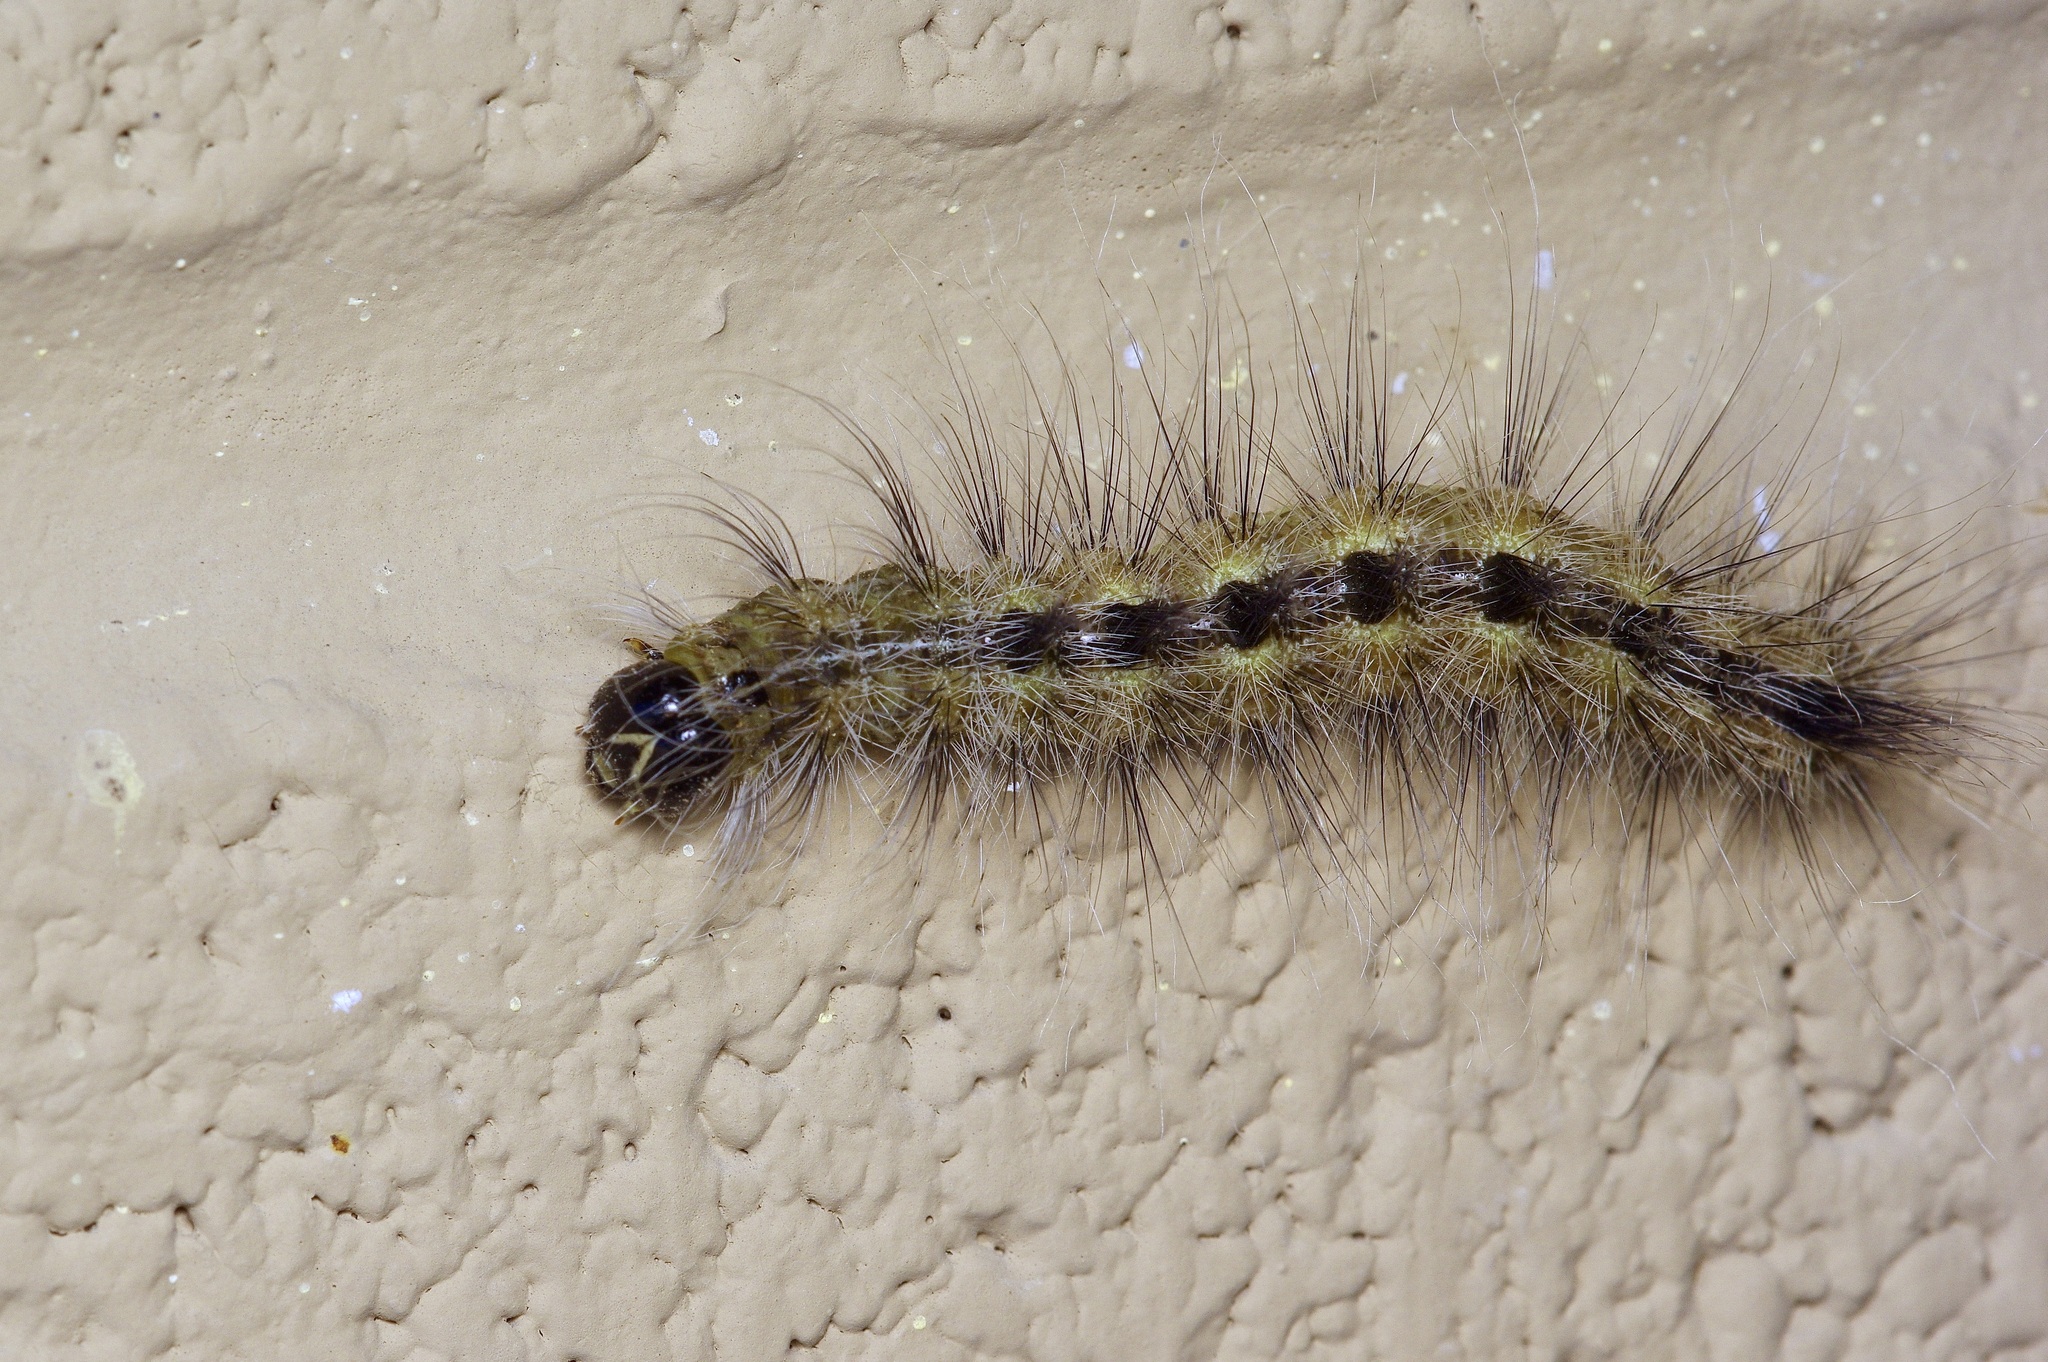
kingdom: Animalia
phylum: Arthropoda
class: Insecta
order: Lepidoptera
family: Noctuidae
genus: Acronicta
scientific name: Acronicta rubricoma
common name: Hackberry dagger
